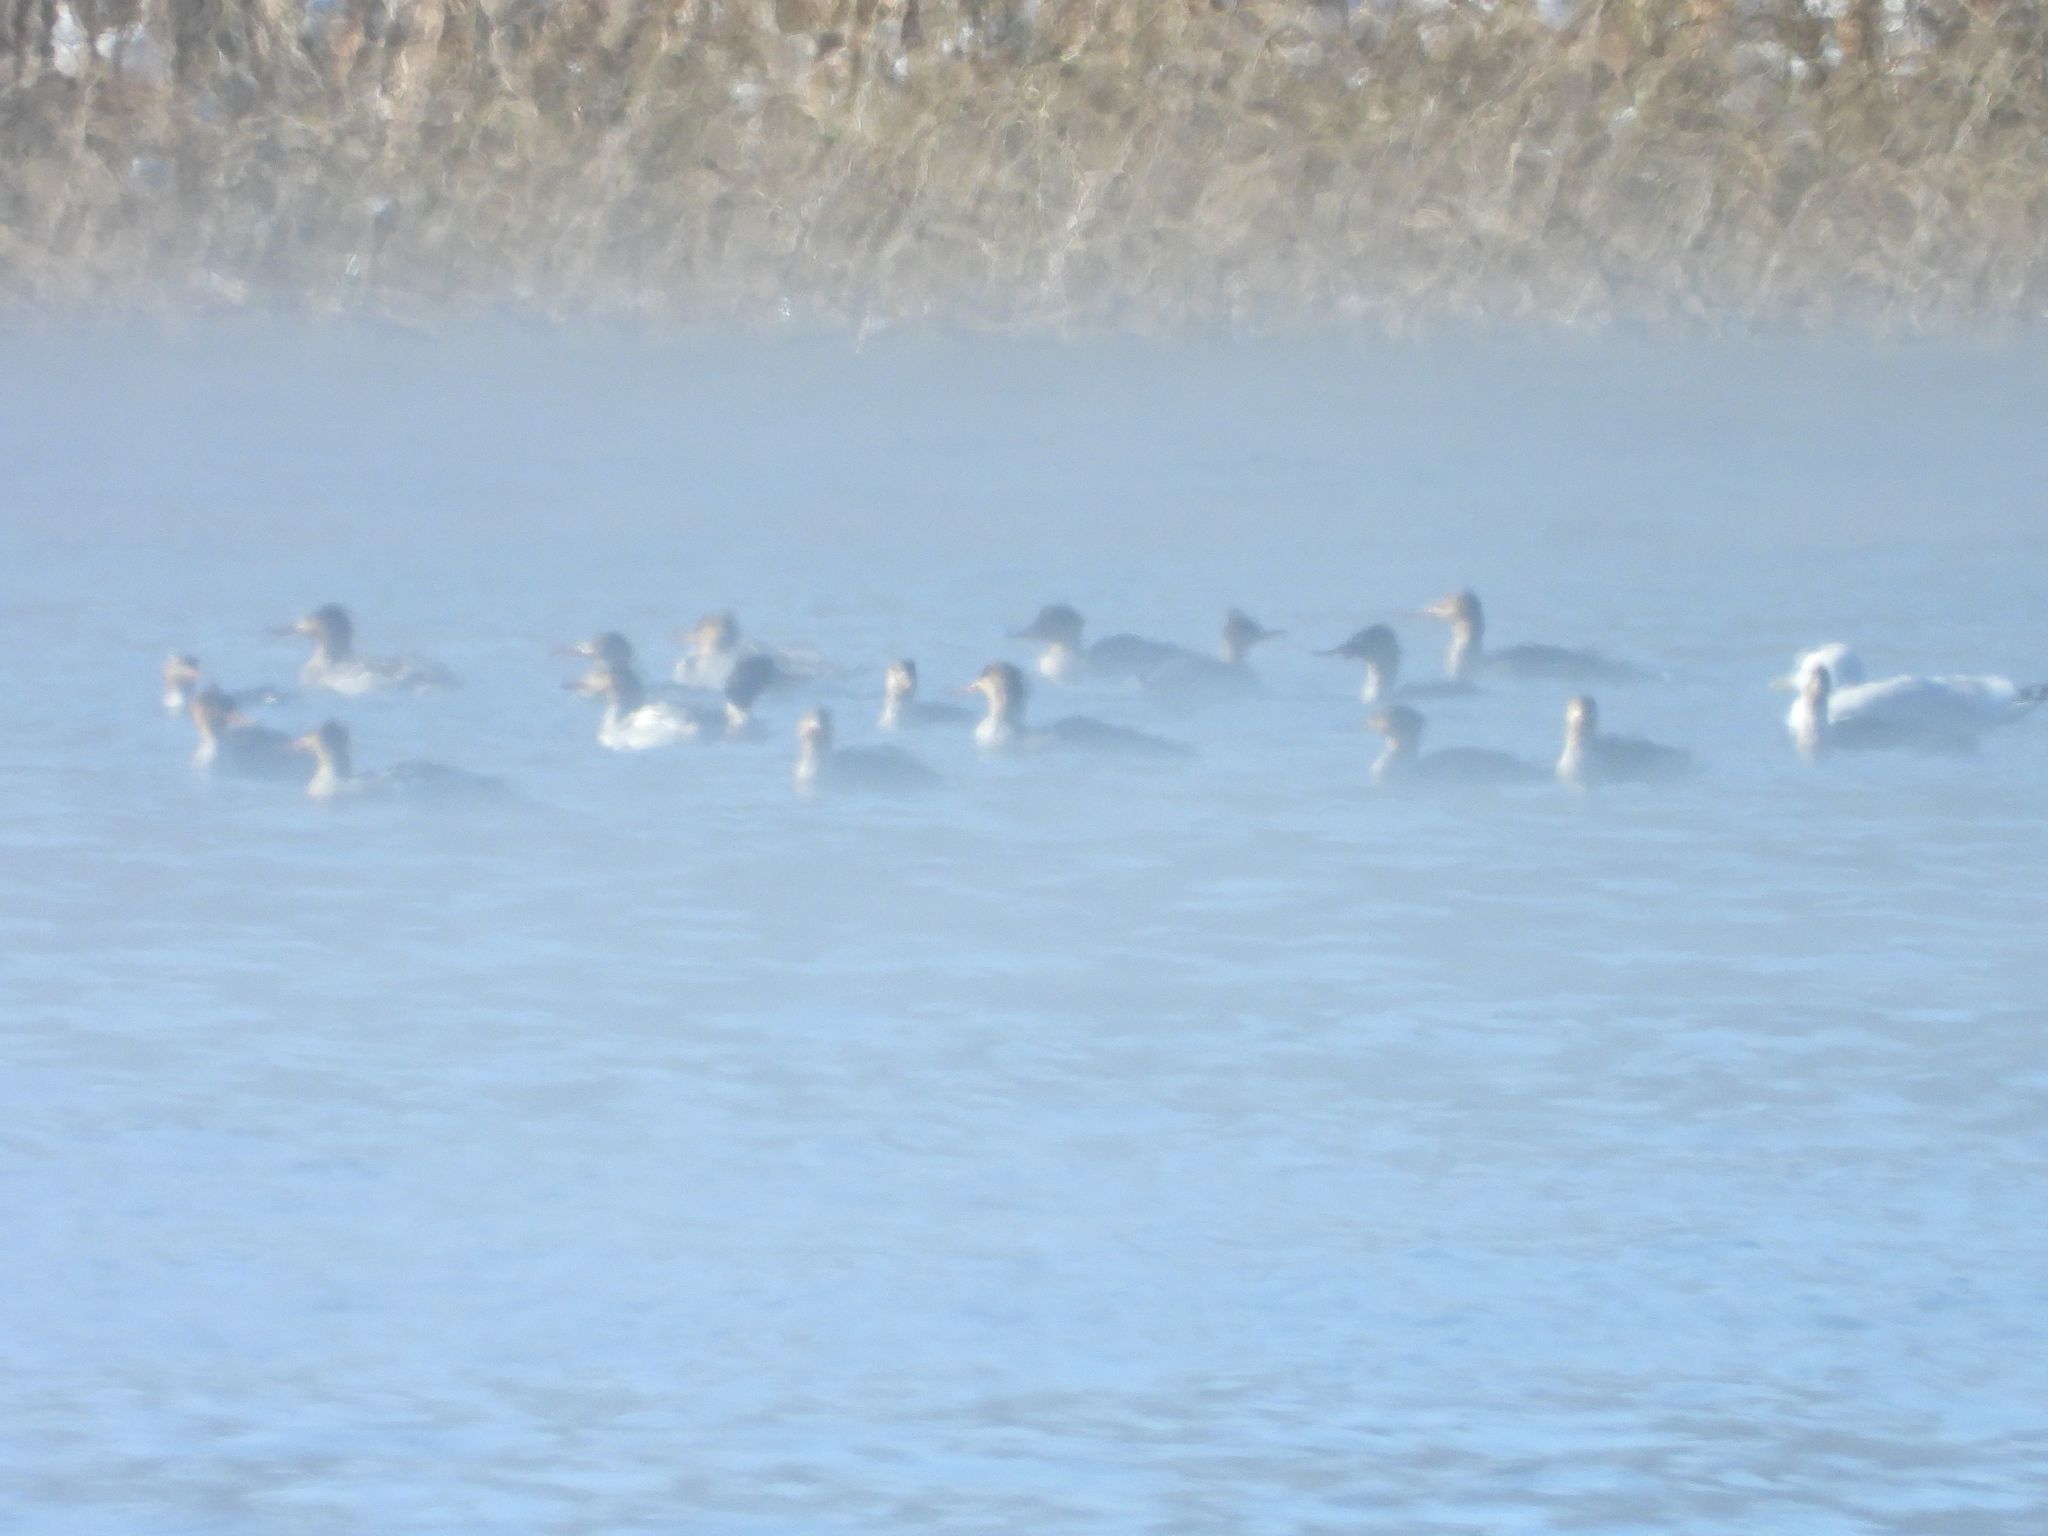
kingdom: Animalia
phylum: Chordata
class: Aves
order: Anseriformes
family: Anatidae
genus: Mergus
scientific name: Mergus serrator
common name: Red-breasted merganser
